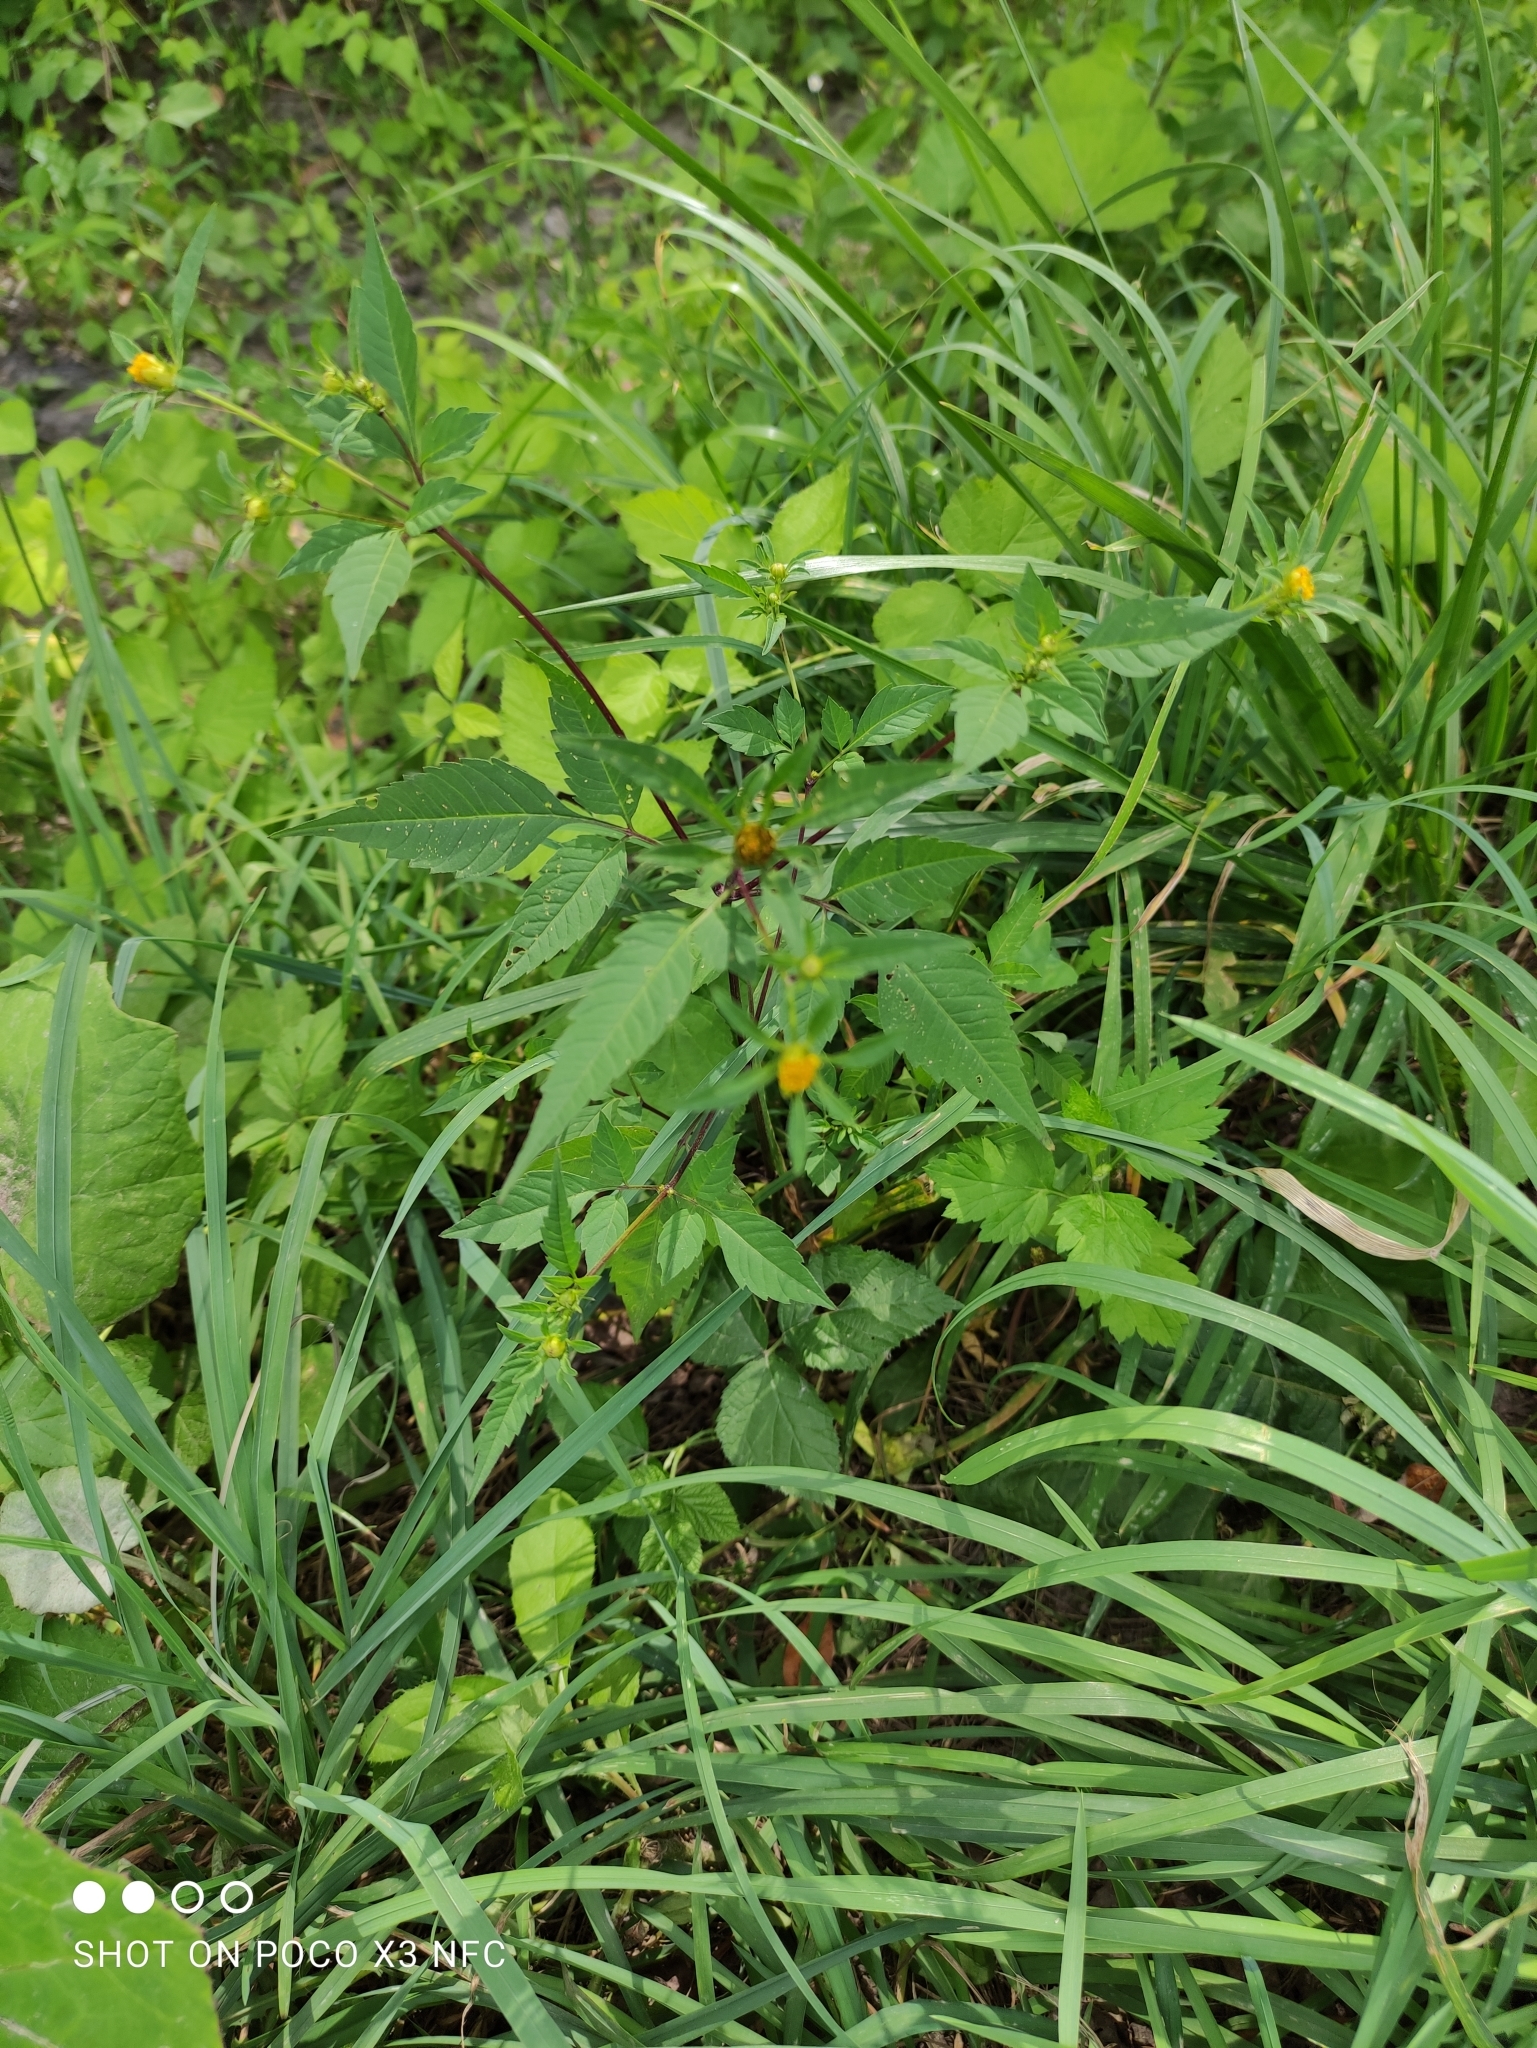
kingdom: Plantae
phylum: Tracheophyta
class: Magnoliopsida
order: Asterales
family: Asteraceae
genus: Bidens
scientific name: Bidens frondosa
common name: Beggarticks
